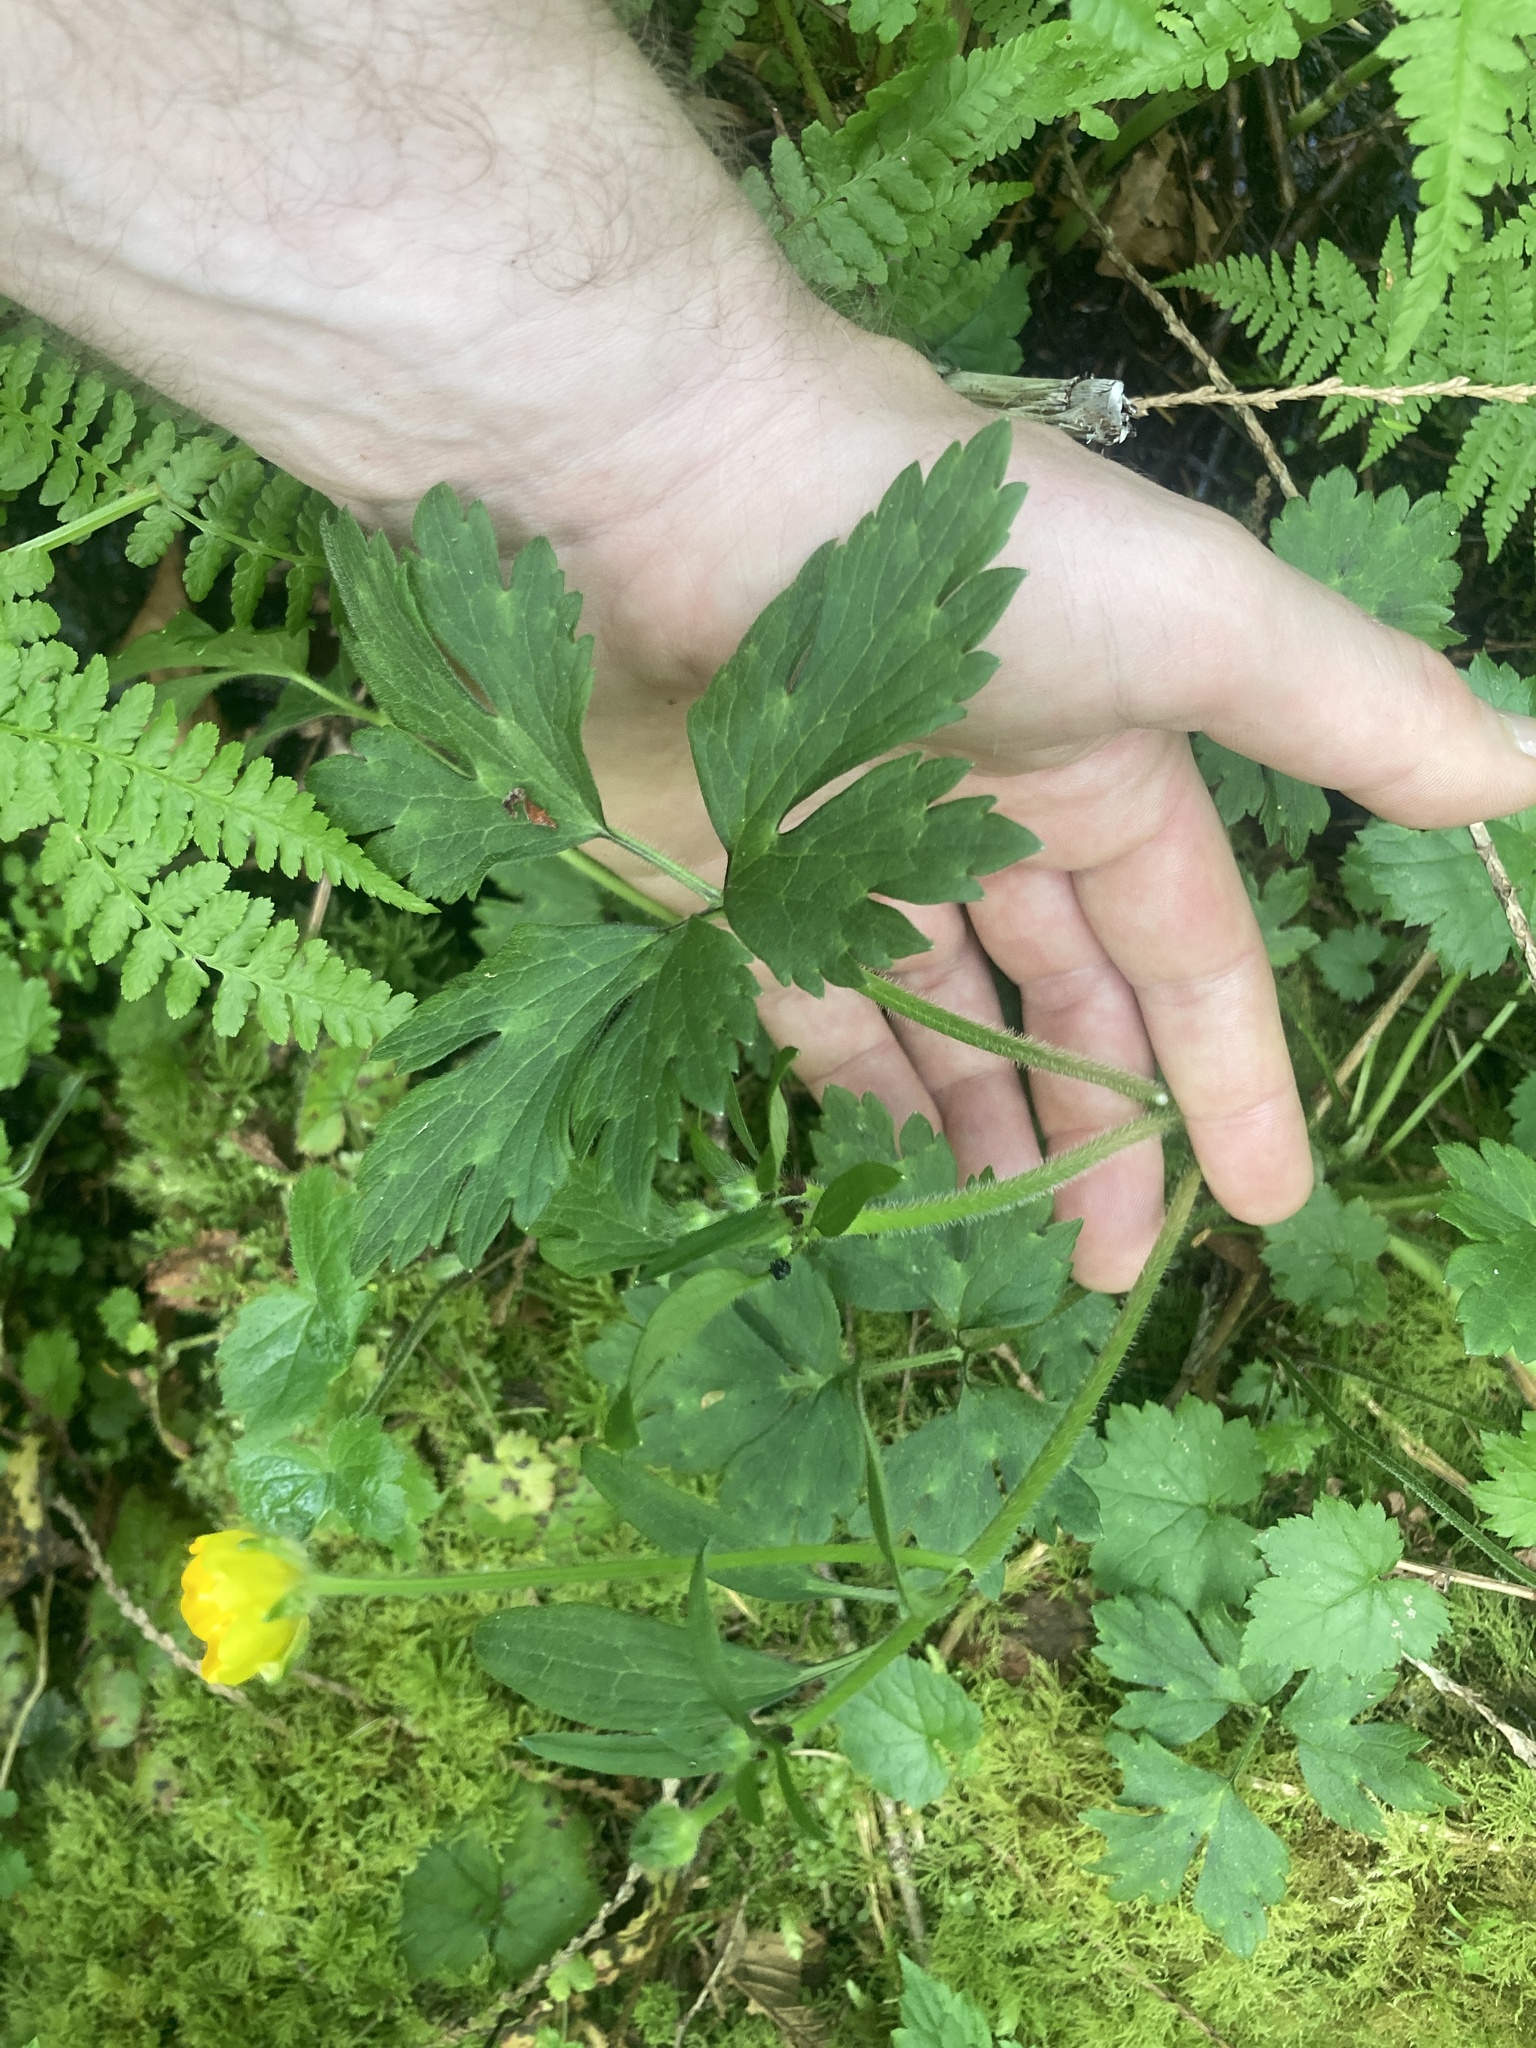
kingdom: Plantae
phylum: Tracheophyta
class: Magnoliopsida
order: Ranunculales
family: Ranunculaceae
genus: Ranunculus
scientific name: Ranunculus repens
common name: Creeping buttercup
